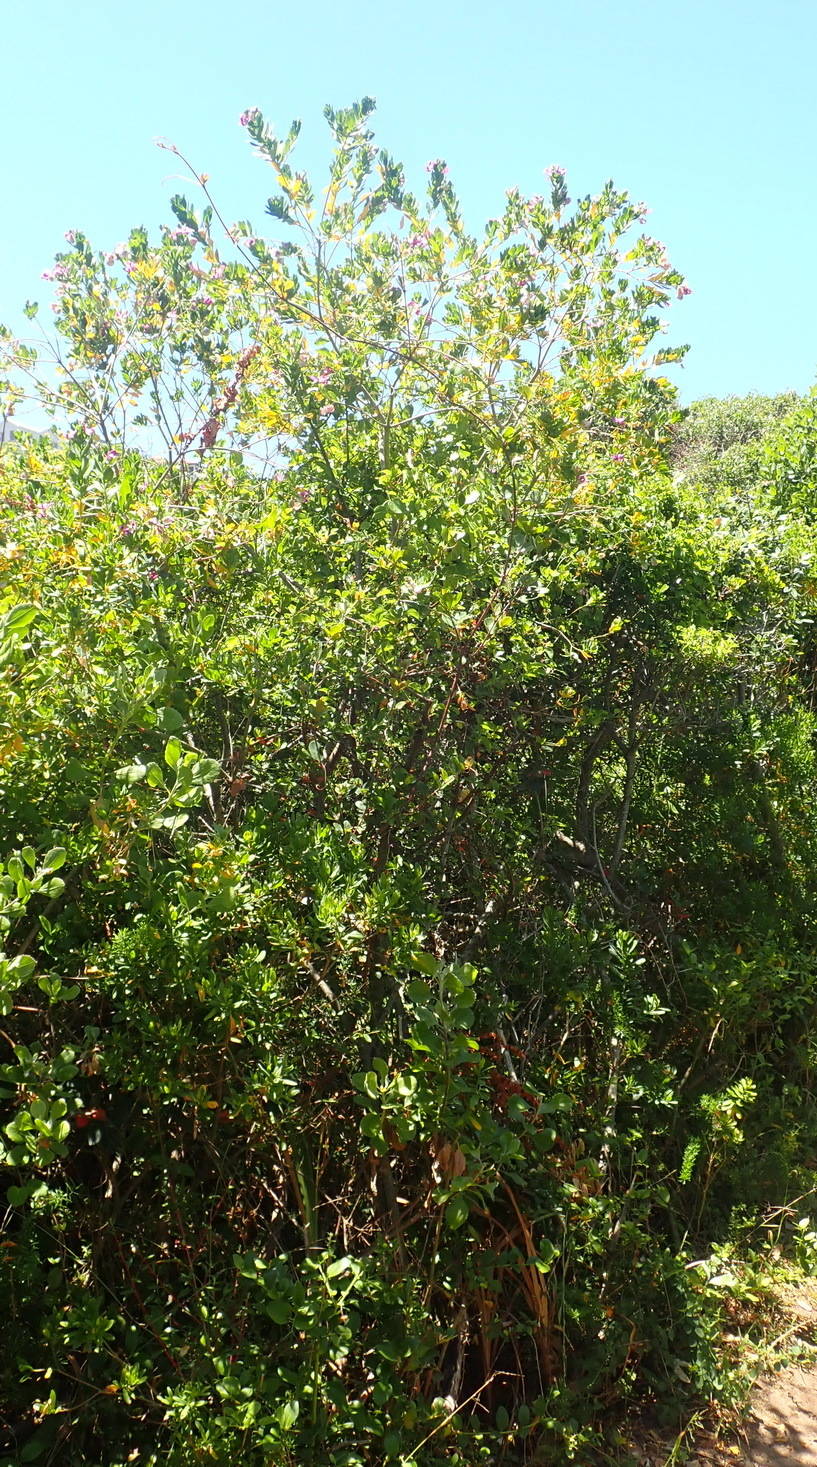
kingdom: Plantae
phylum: Tracheophyta
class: Magnoliopsida
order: Fabales
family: Polygalaceae
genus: Polygala
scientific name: Polygala myrtifolia
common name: Myrtle-leaf milkwort
